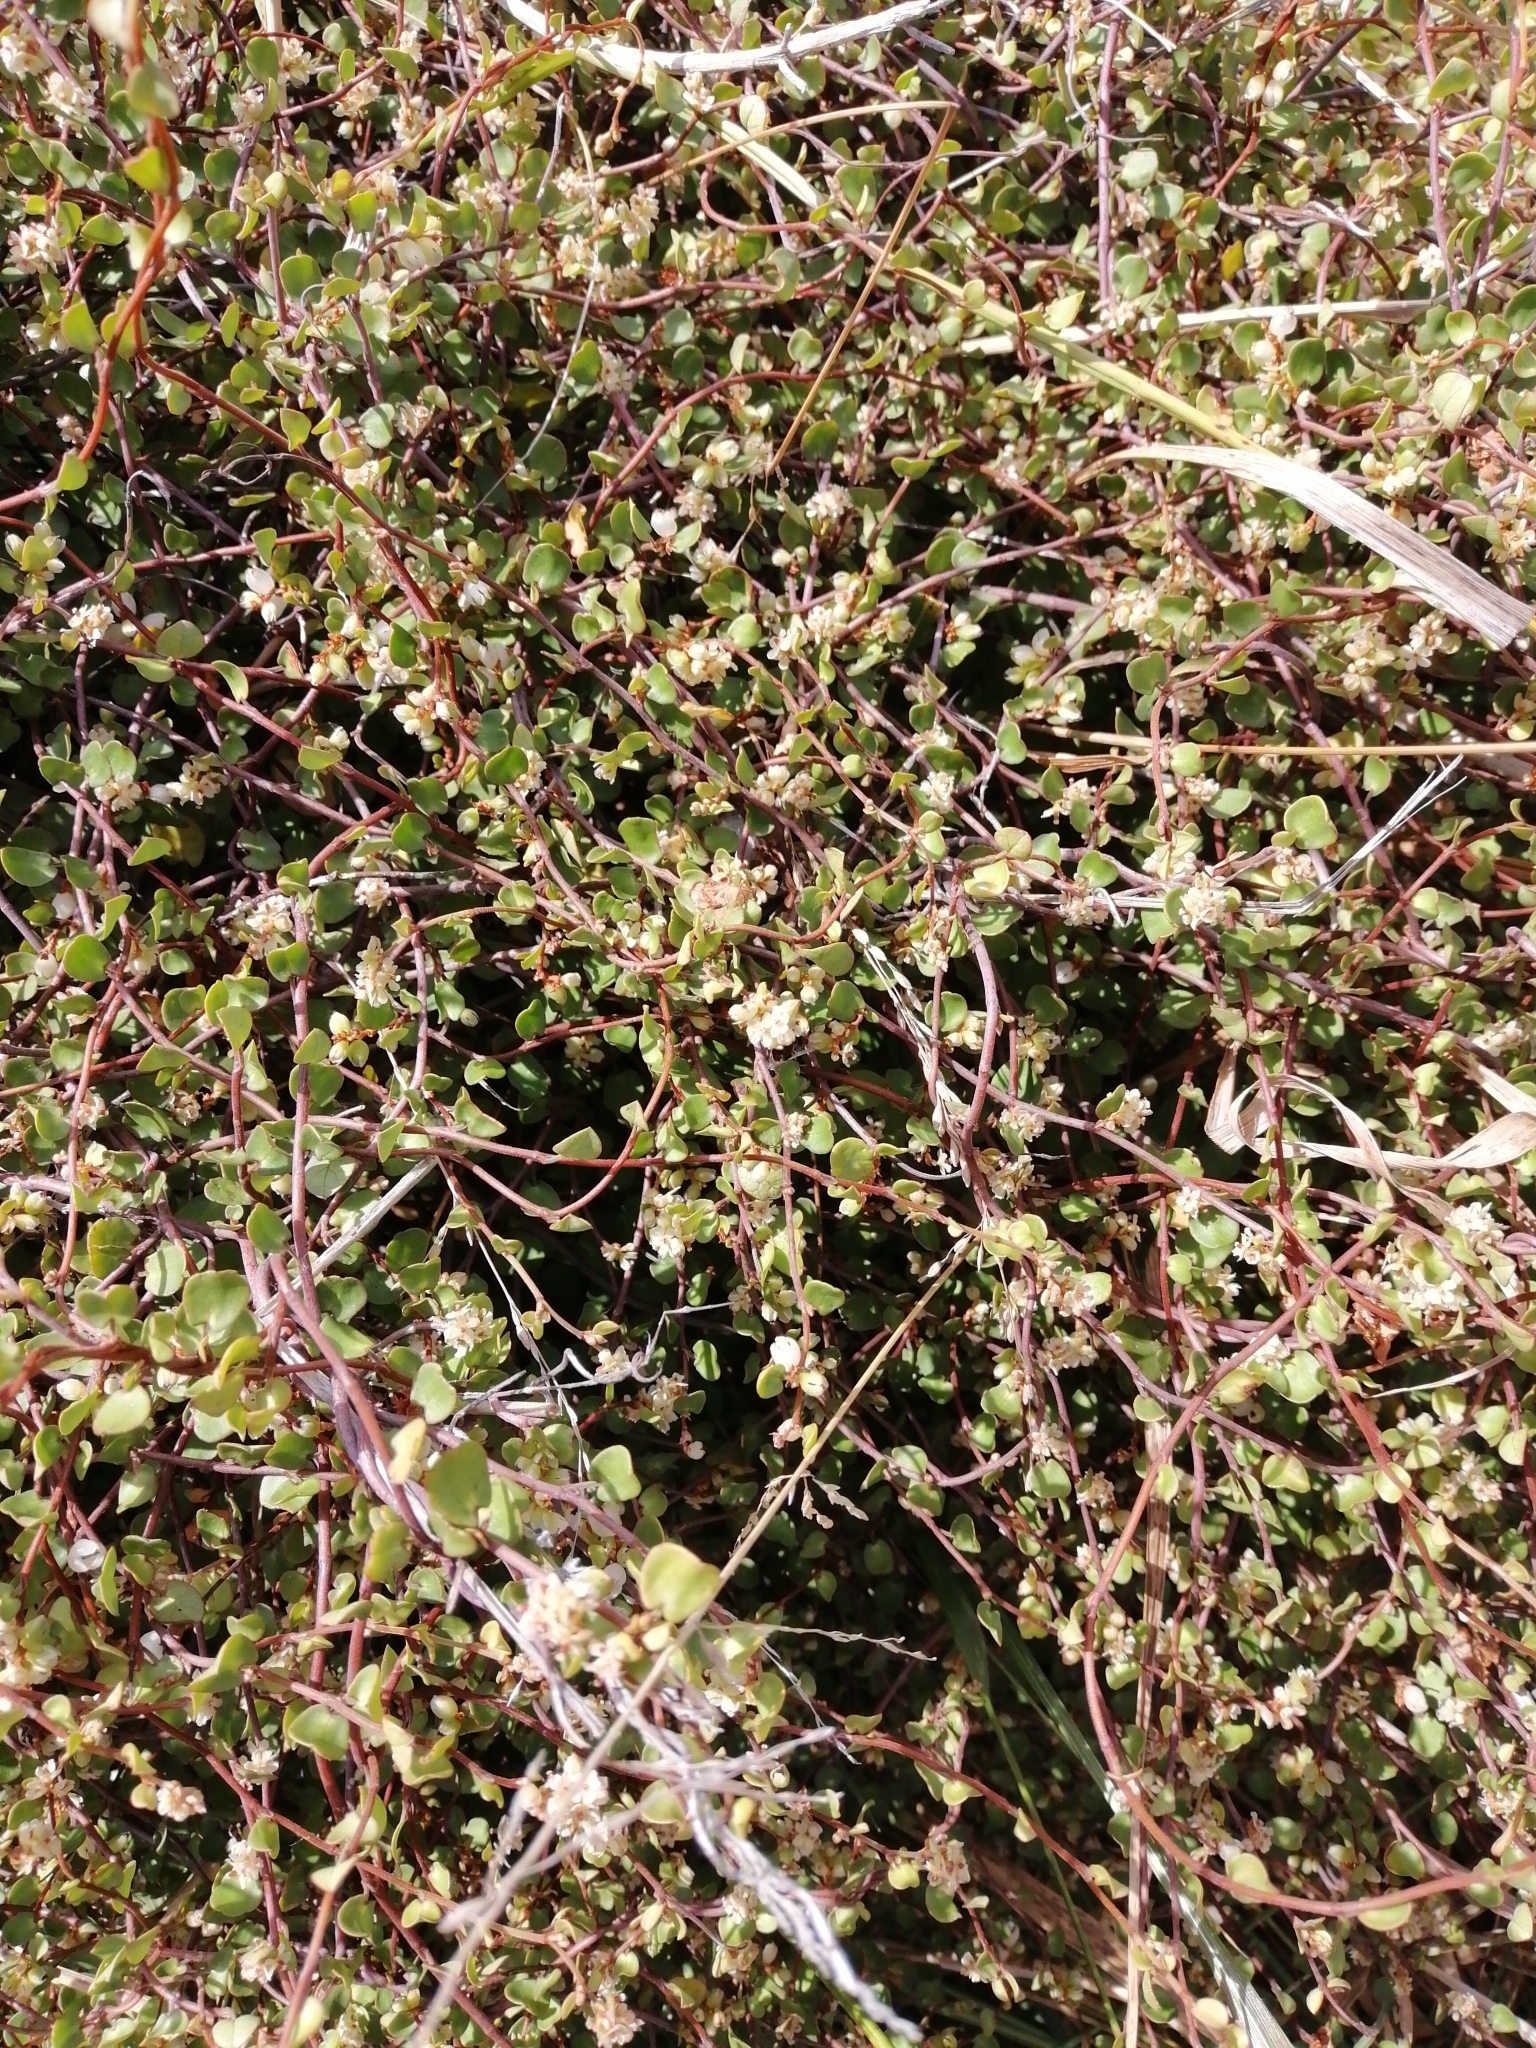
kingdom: Plantae
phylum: Tracheophyta
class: Magnoliopsida
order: Caryophyllales
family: Polygonaceae
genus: Muehlenbeckia
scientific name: Muehlenbeckia complexa
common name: Wireplant
